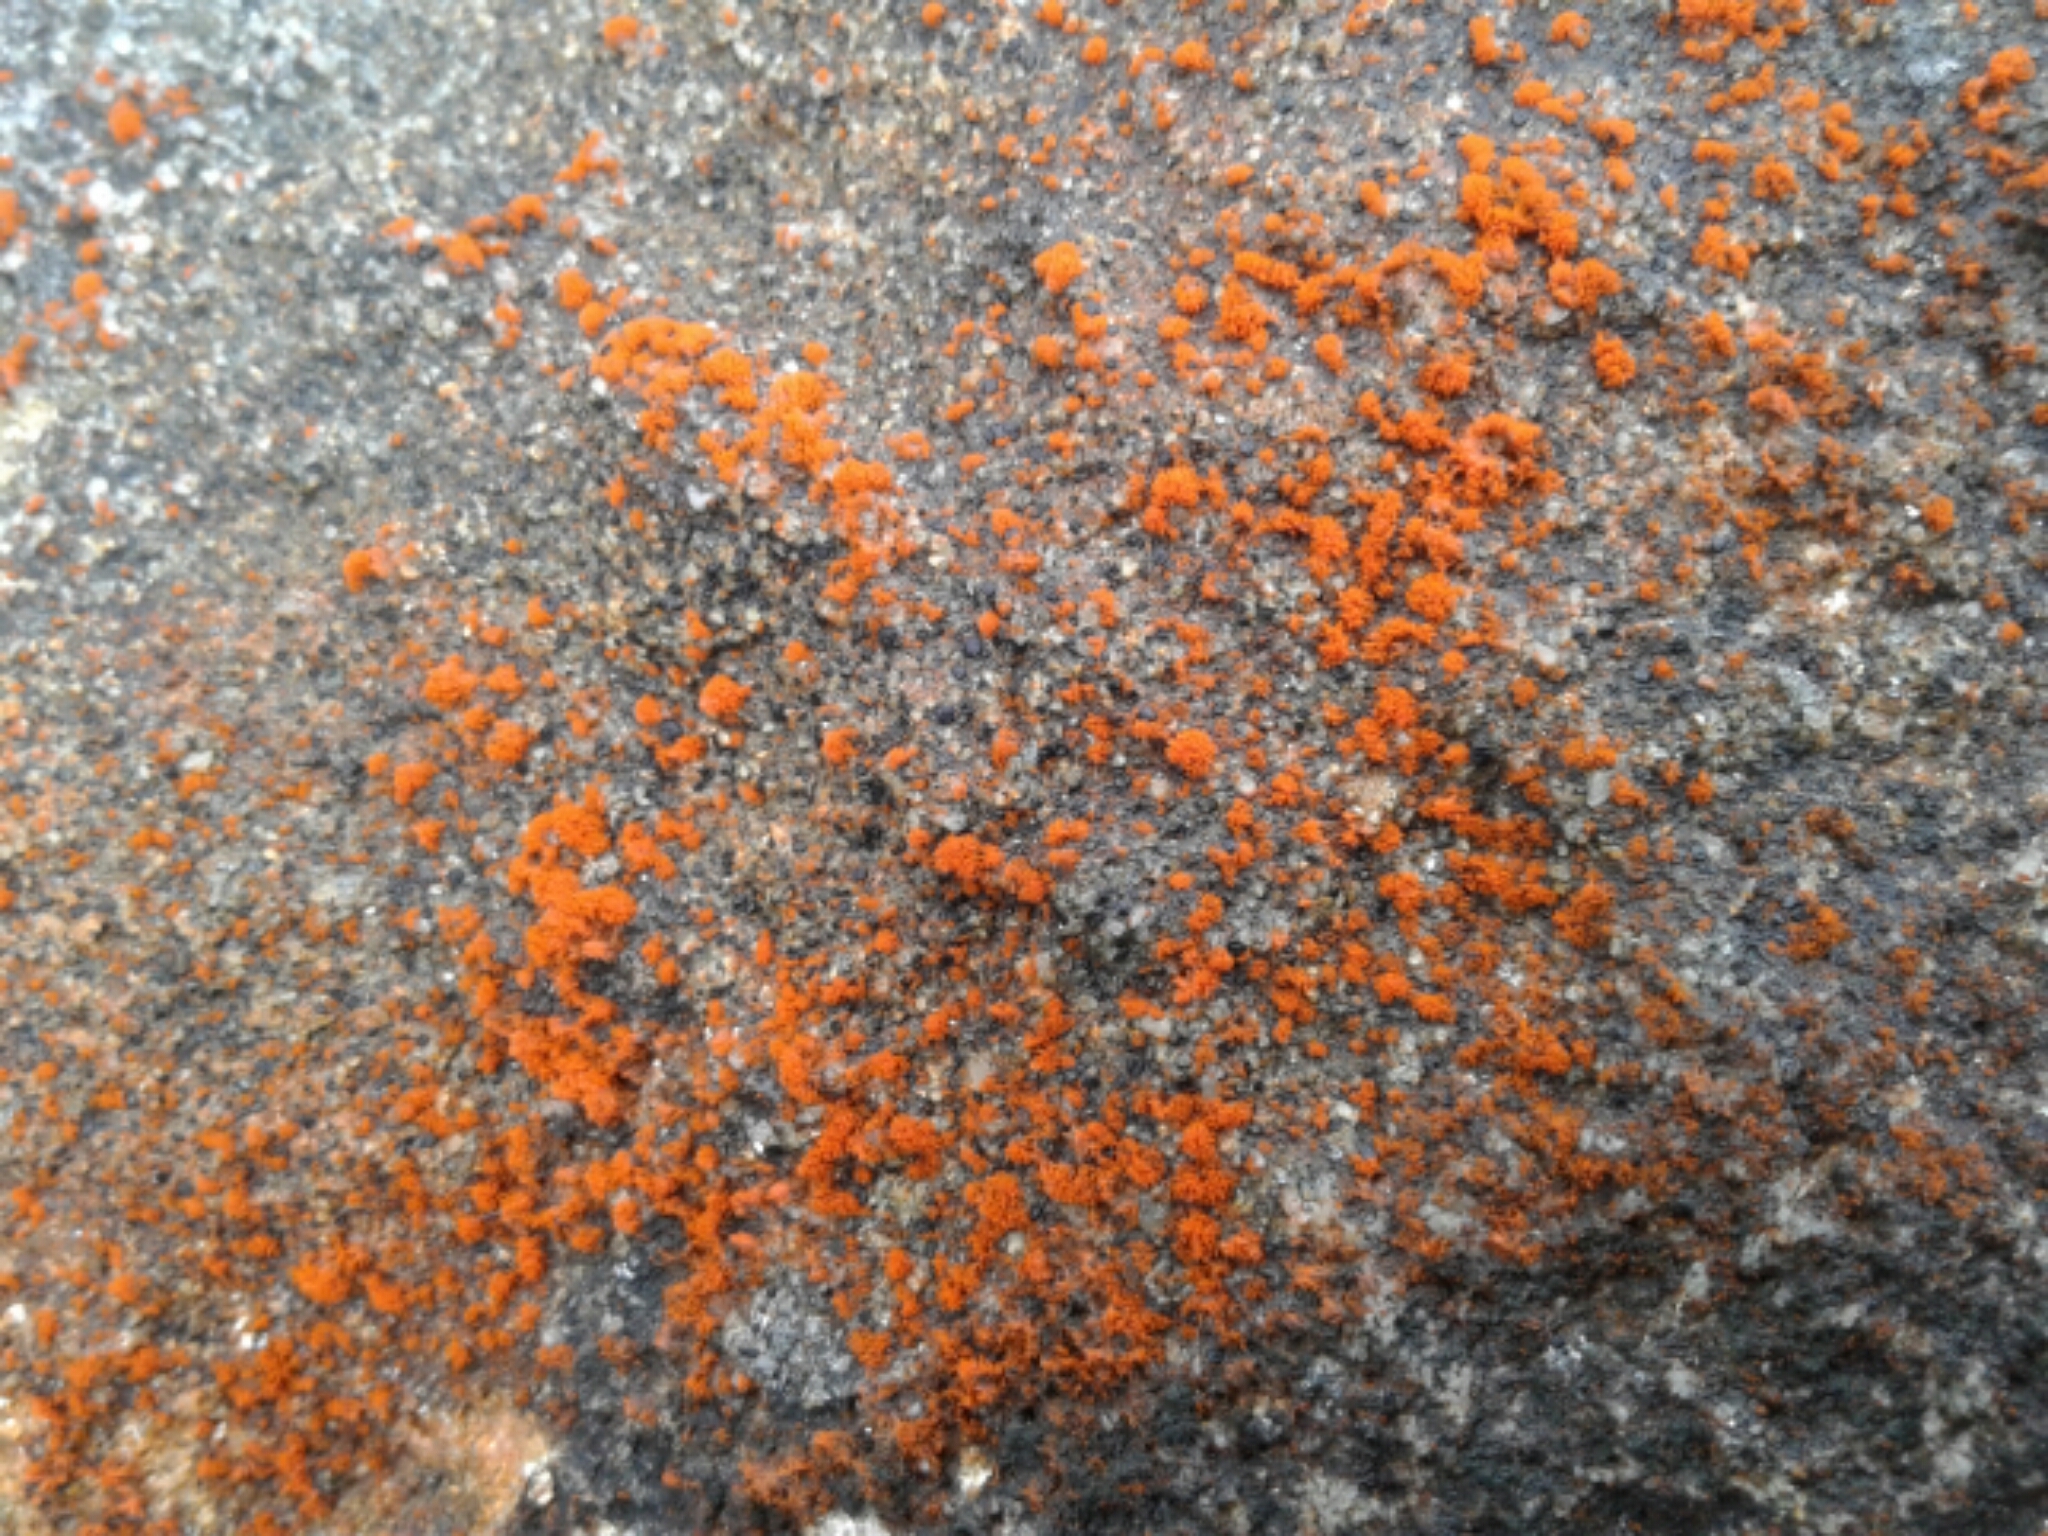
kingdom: Plantae
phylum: Chlorophyta
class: Ulvophyceae
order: Trentepohliales
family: Trentepohliaceae
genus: Trentepohlia
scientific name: Trentepohlia
